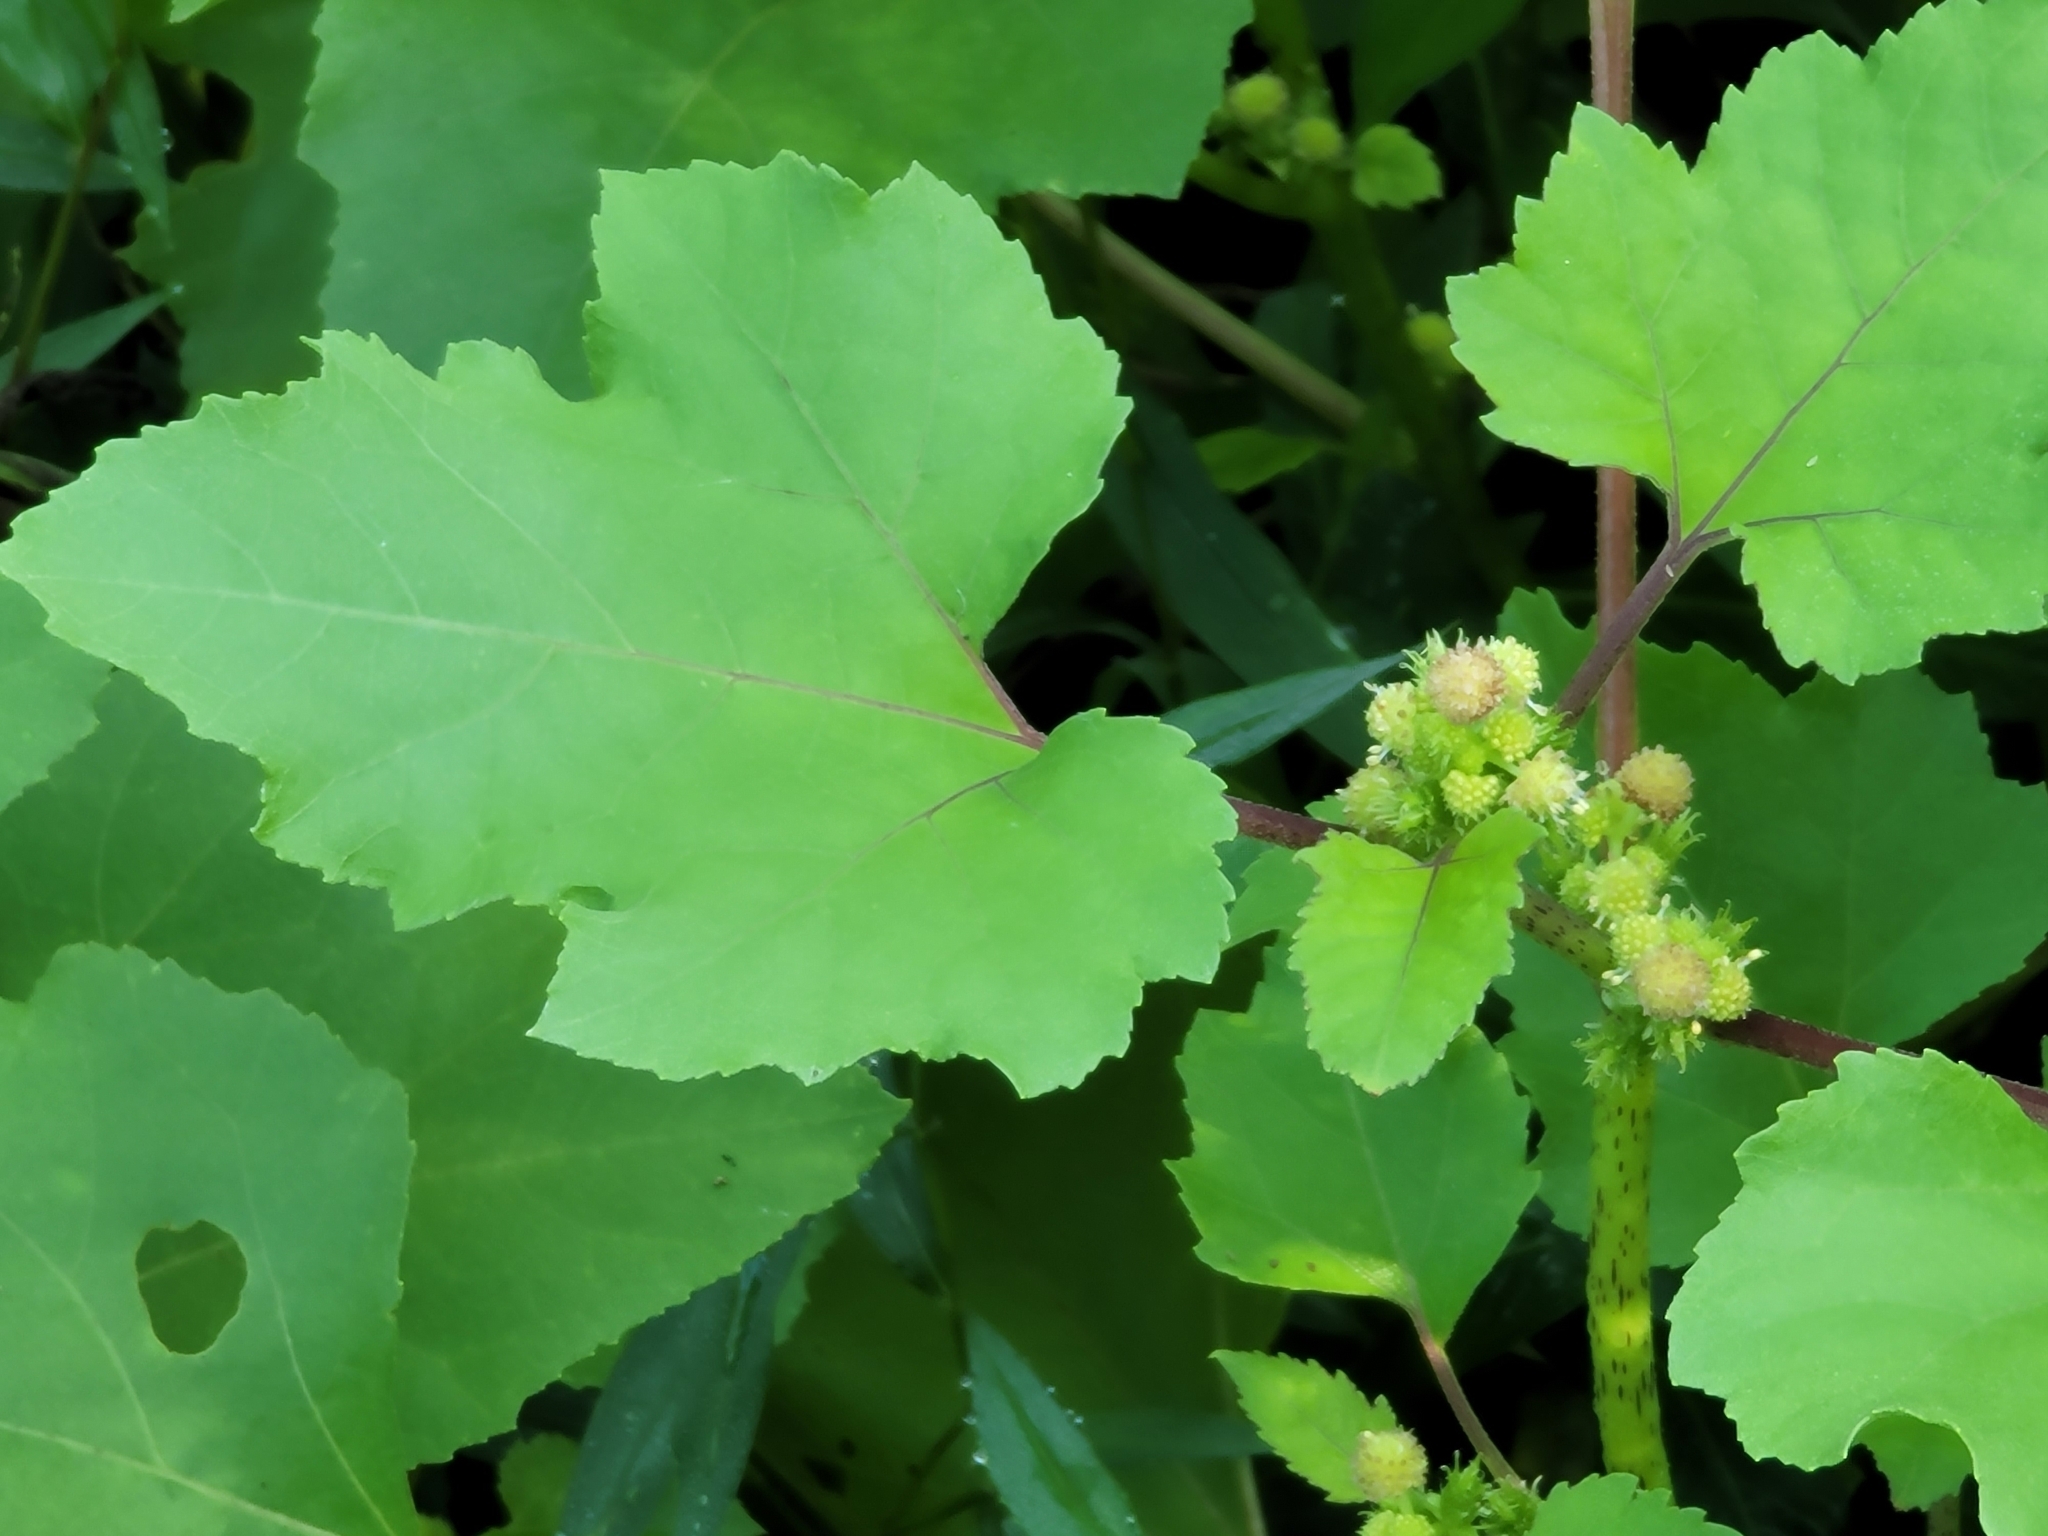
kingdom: Plantae
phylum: Tracheophyta
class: Magnoliopsida
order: Asterales
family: Asteraceae
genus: Xanthium
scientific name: Xanthium strumarium
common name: Rough cocklebur
